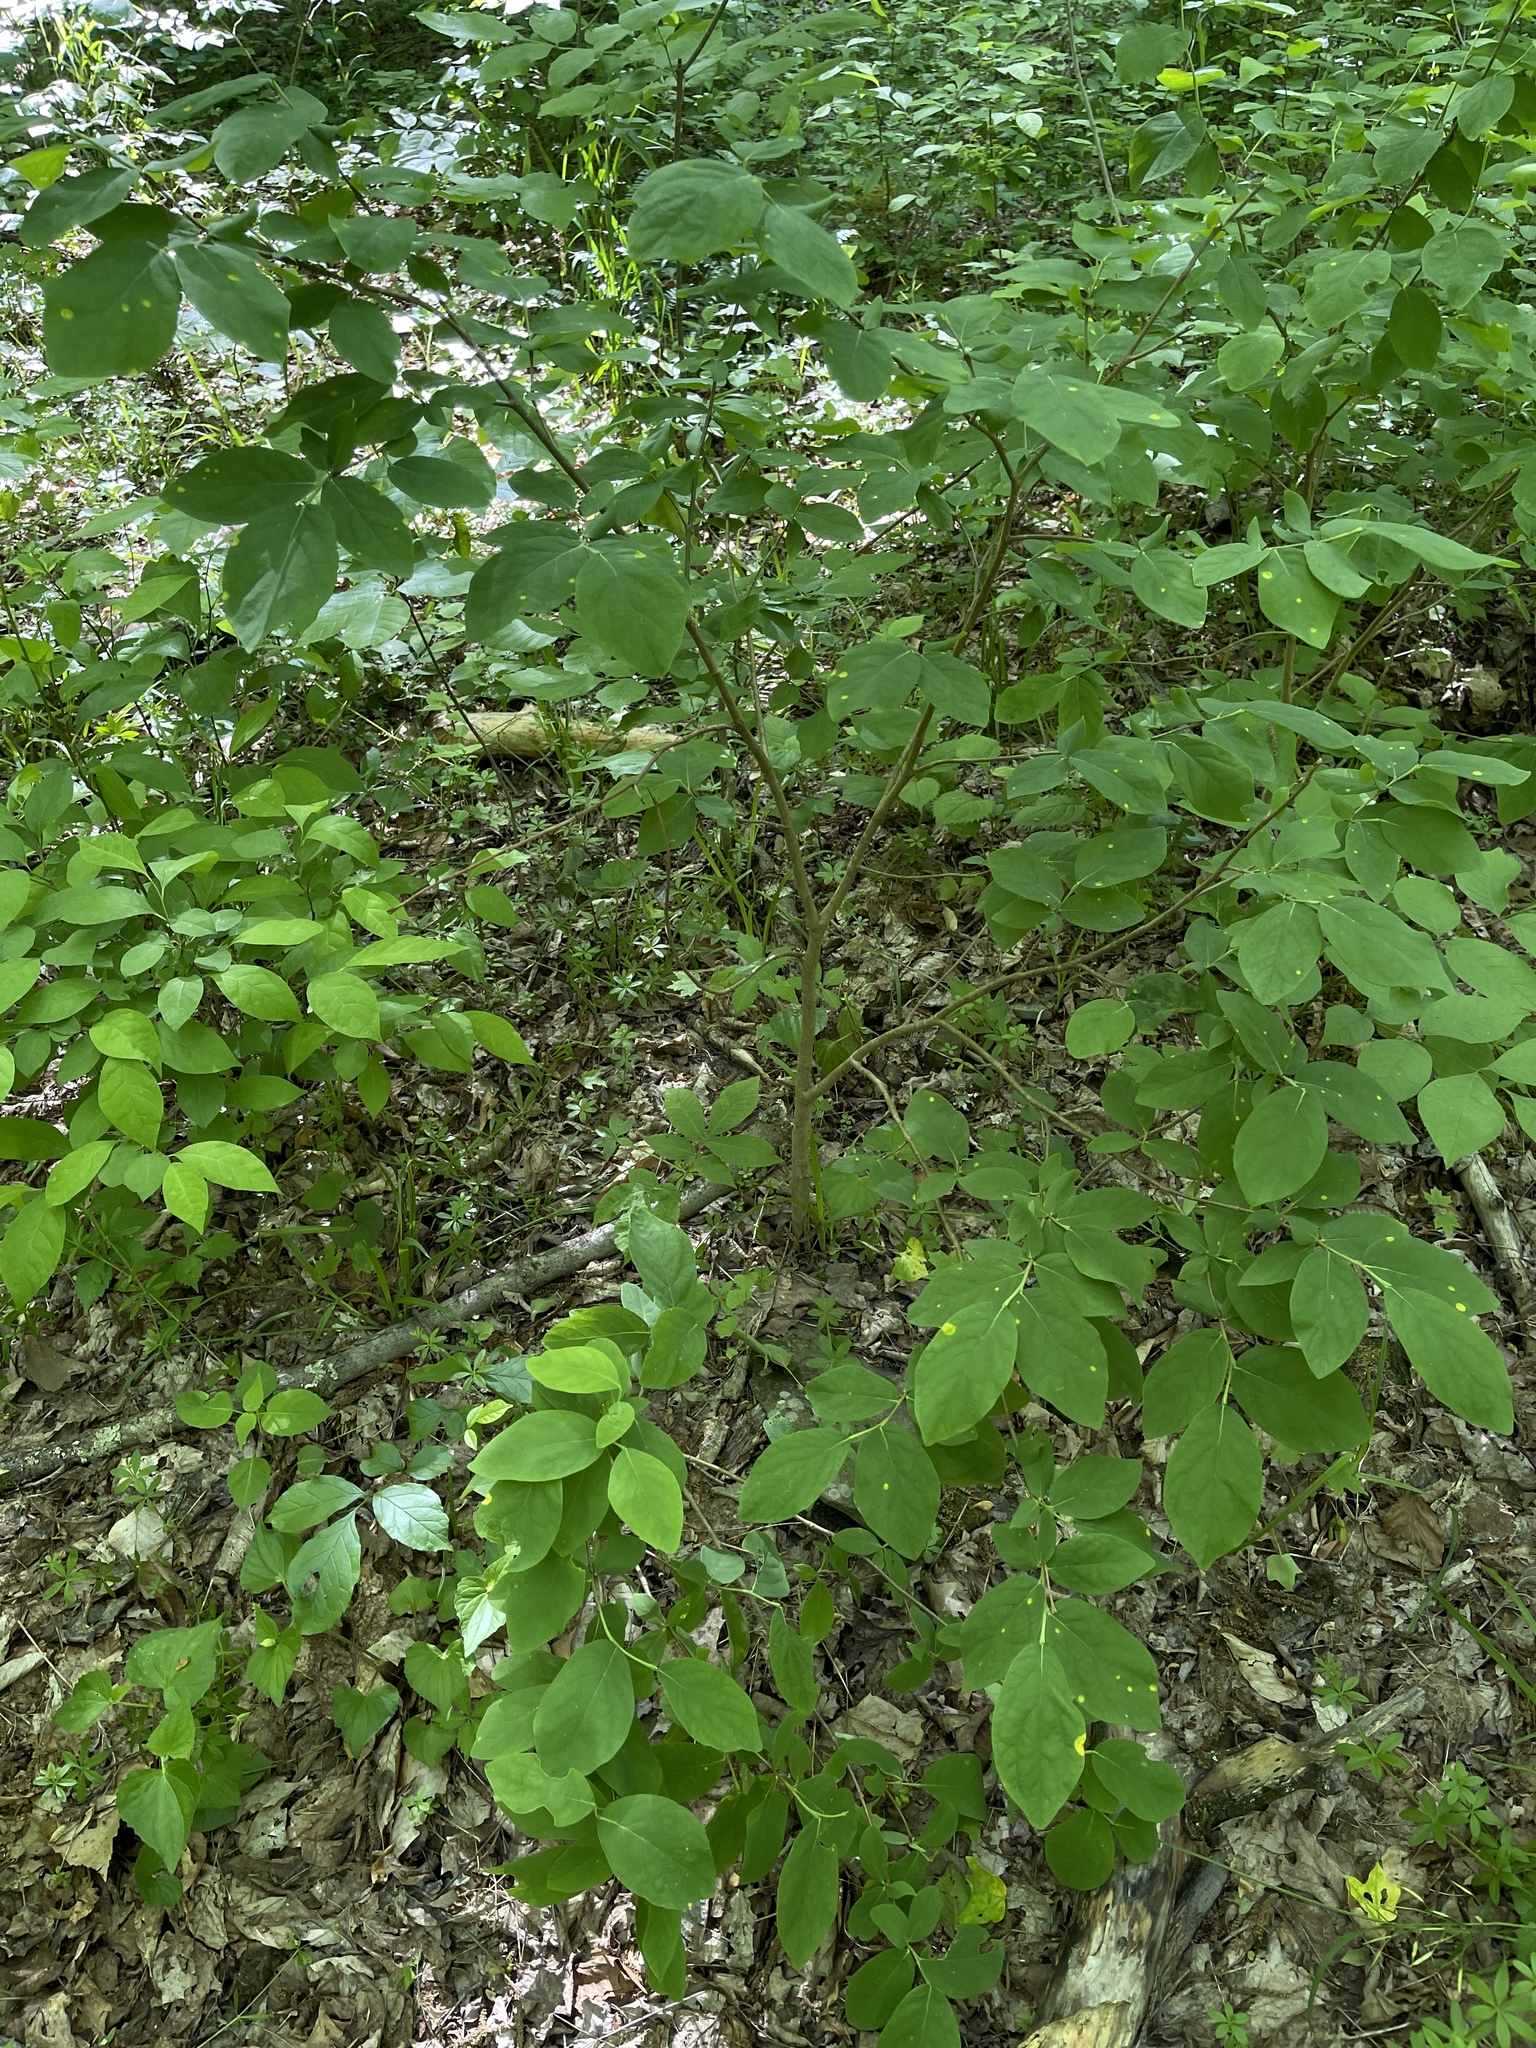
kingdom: Plantae
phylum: Tracheophyta
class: Magnoliopsida
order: Malvales
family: Thymelaeaceae
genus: Dirca
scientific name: Dirca palustris
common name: Leatherwood
